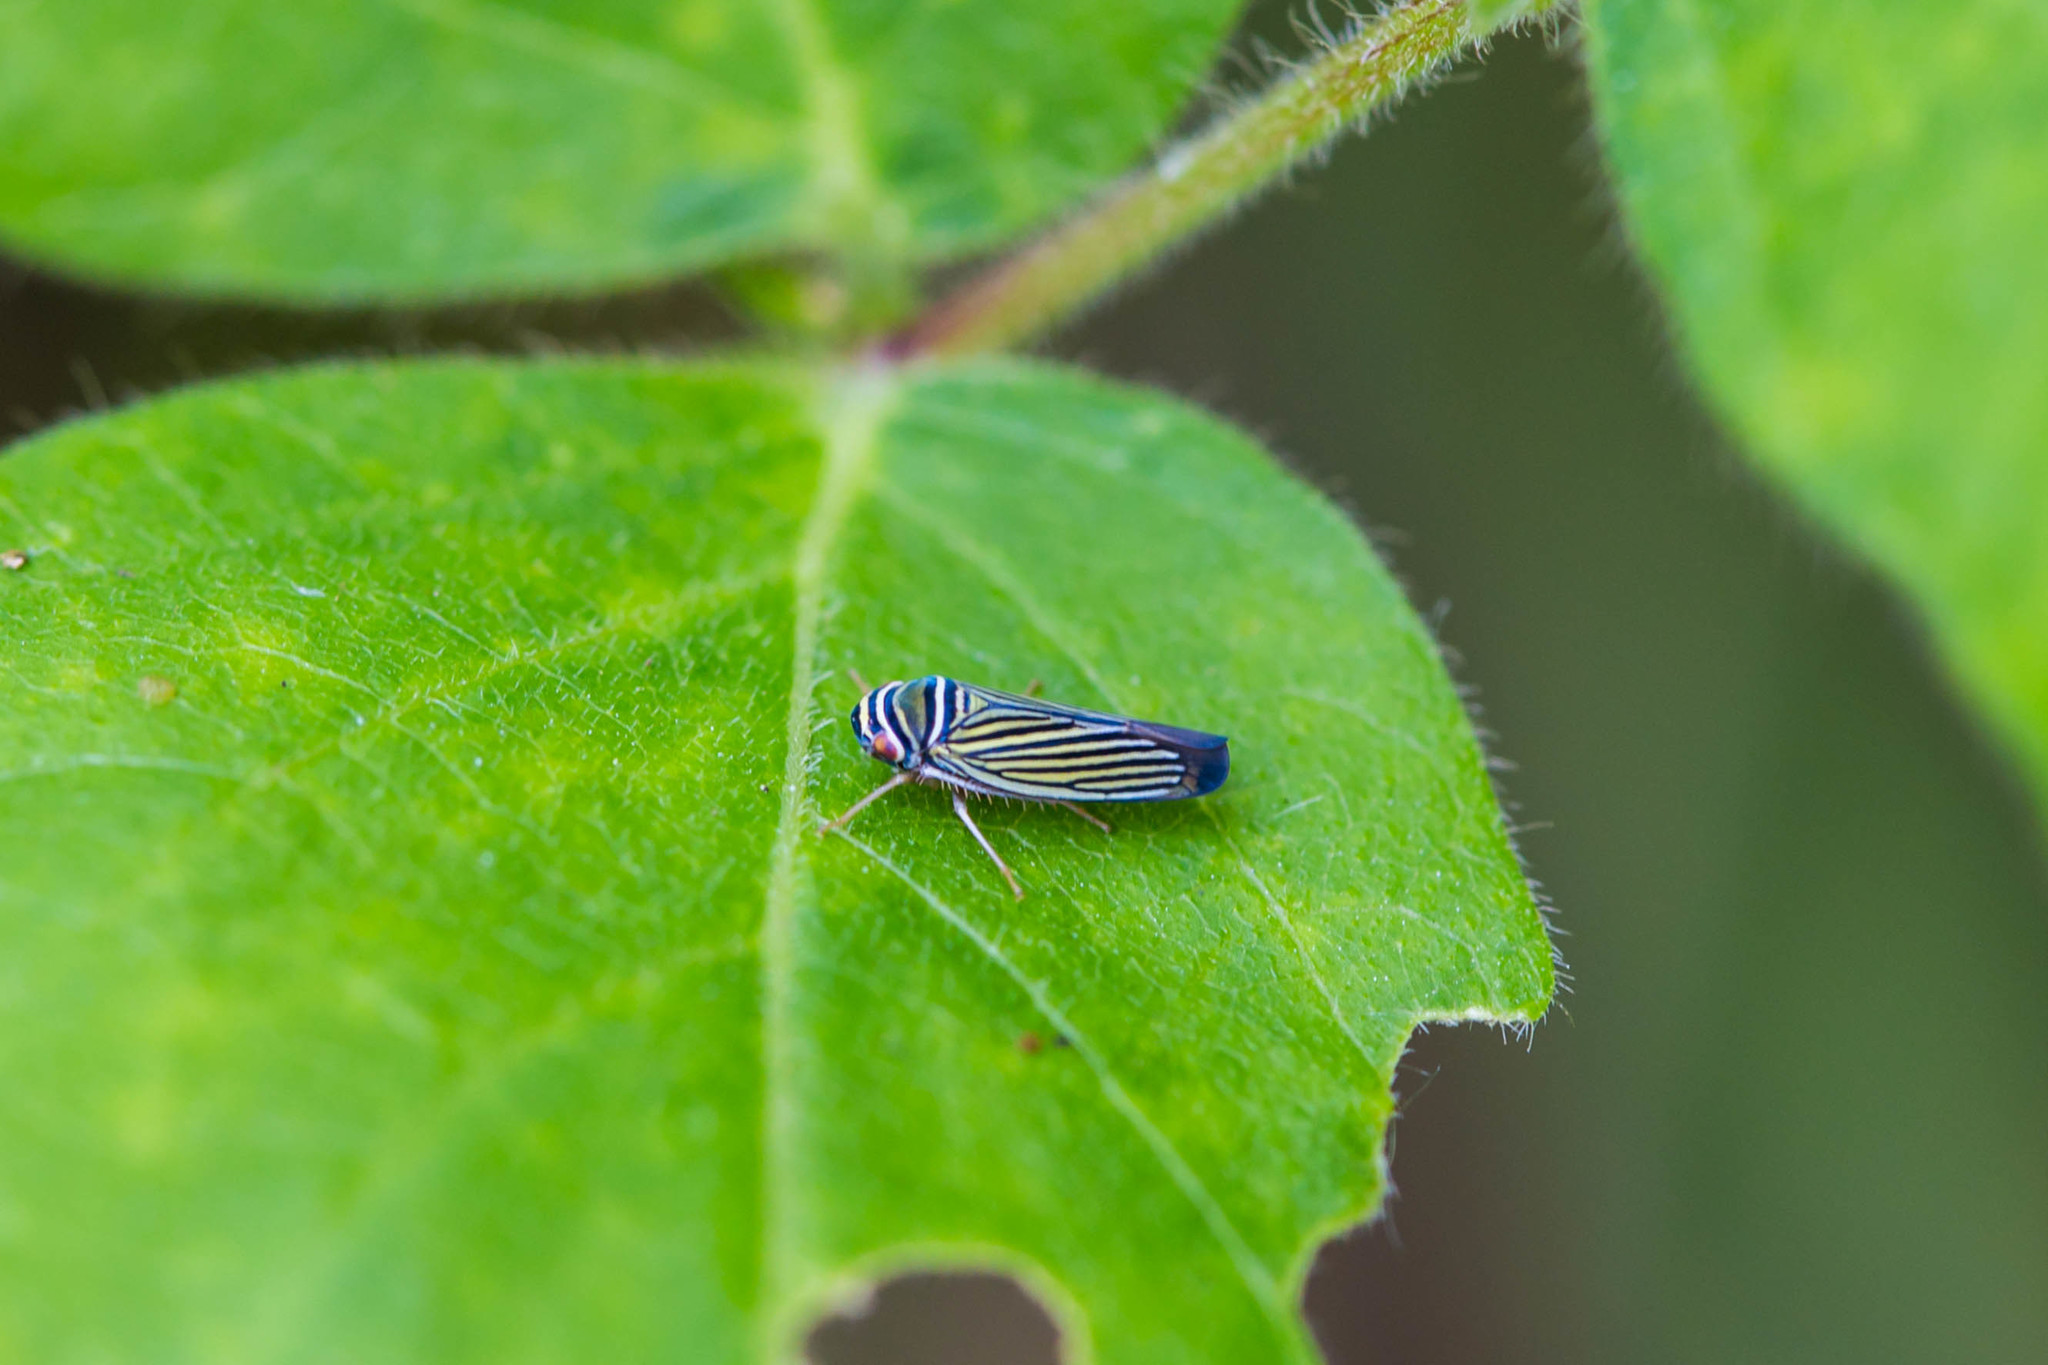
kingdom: Animalia
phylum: Arthropoda
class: Insecta
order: Hemiptera
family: Cicadellidae
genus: Tylozygus
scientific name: Tylozygus bifidus
